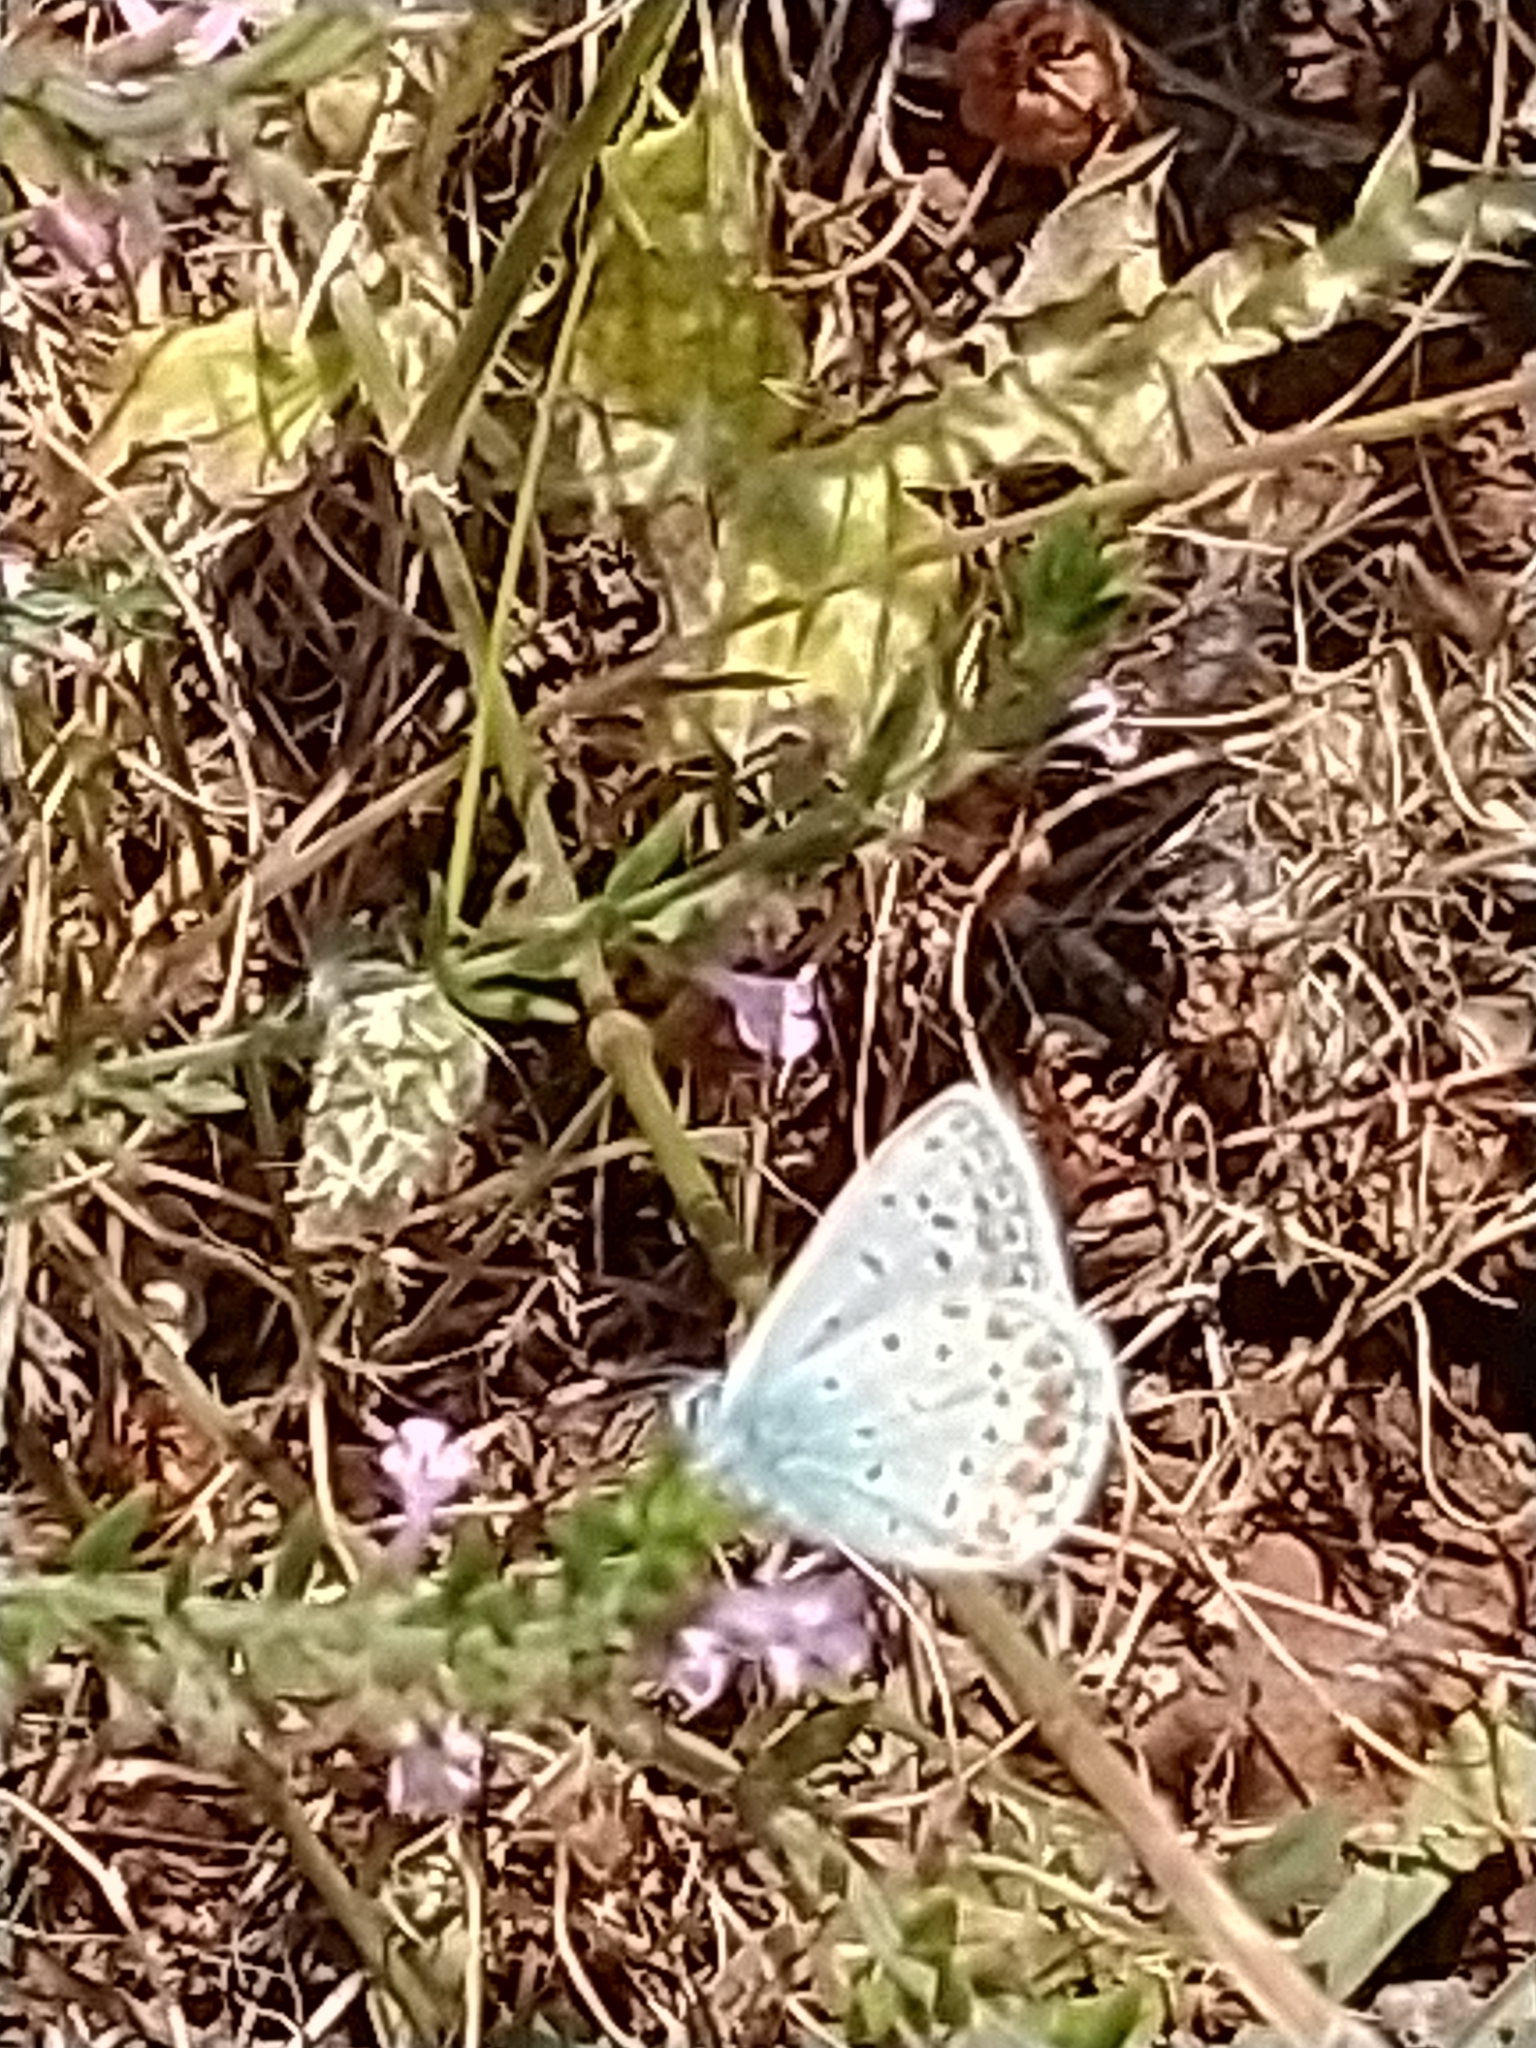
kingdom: Animalia
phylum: Arthropoda
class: Insecta
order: Lepidoptera
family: Lycaenidae
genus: Polyommatus
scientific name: Polyommatus icarus
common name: Common blue
